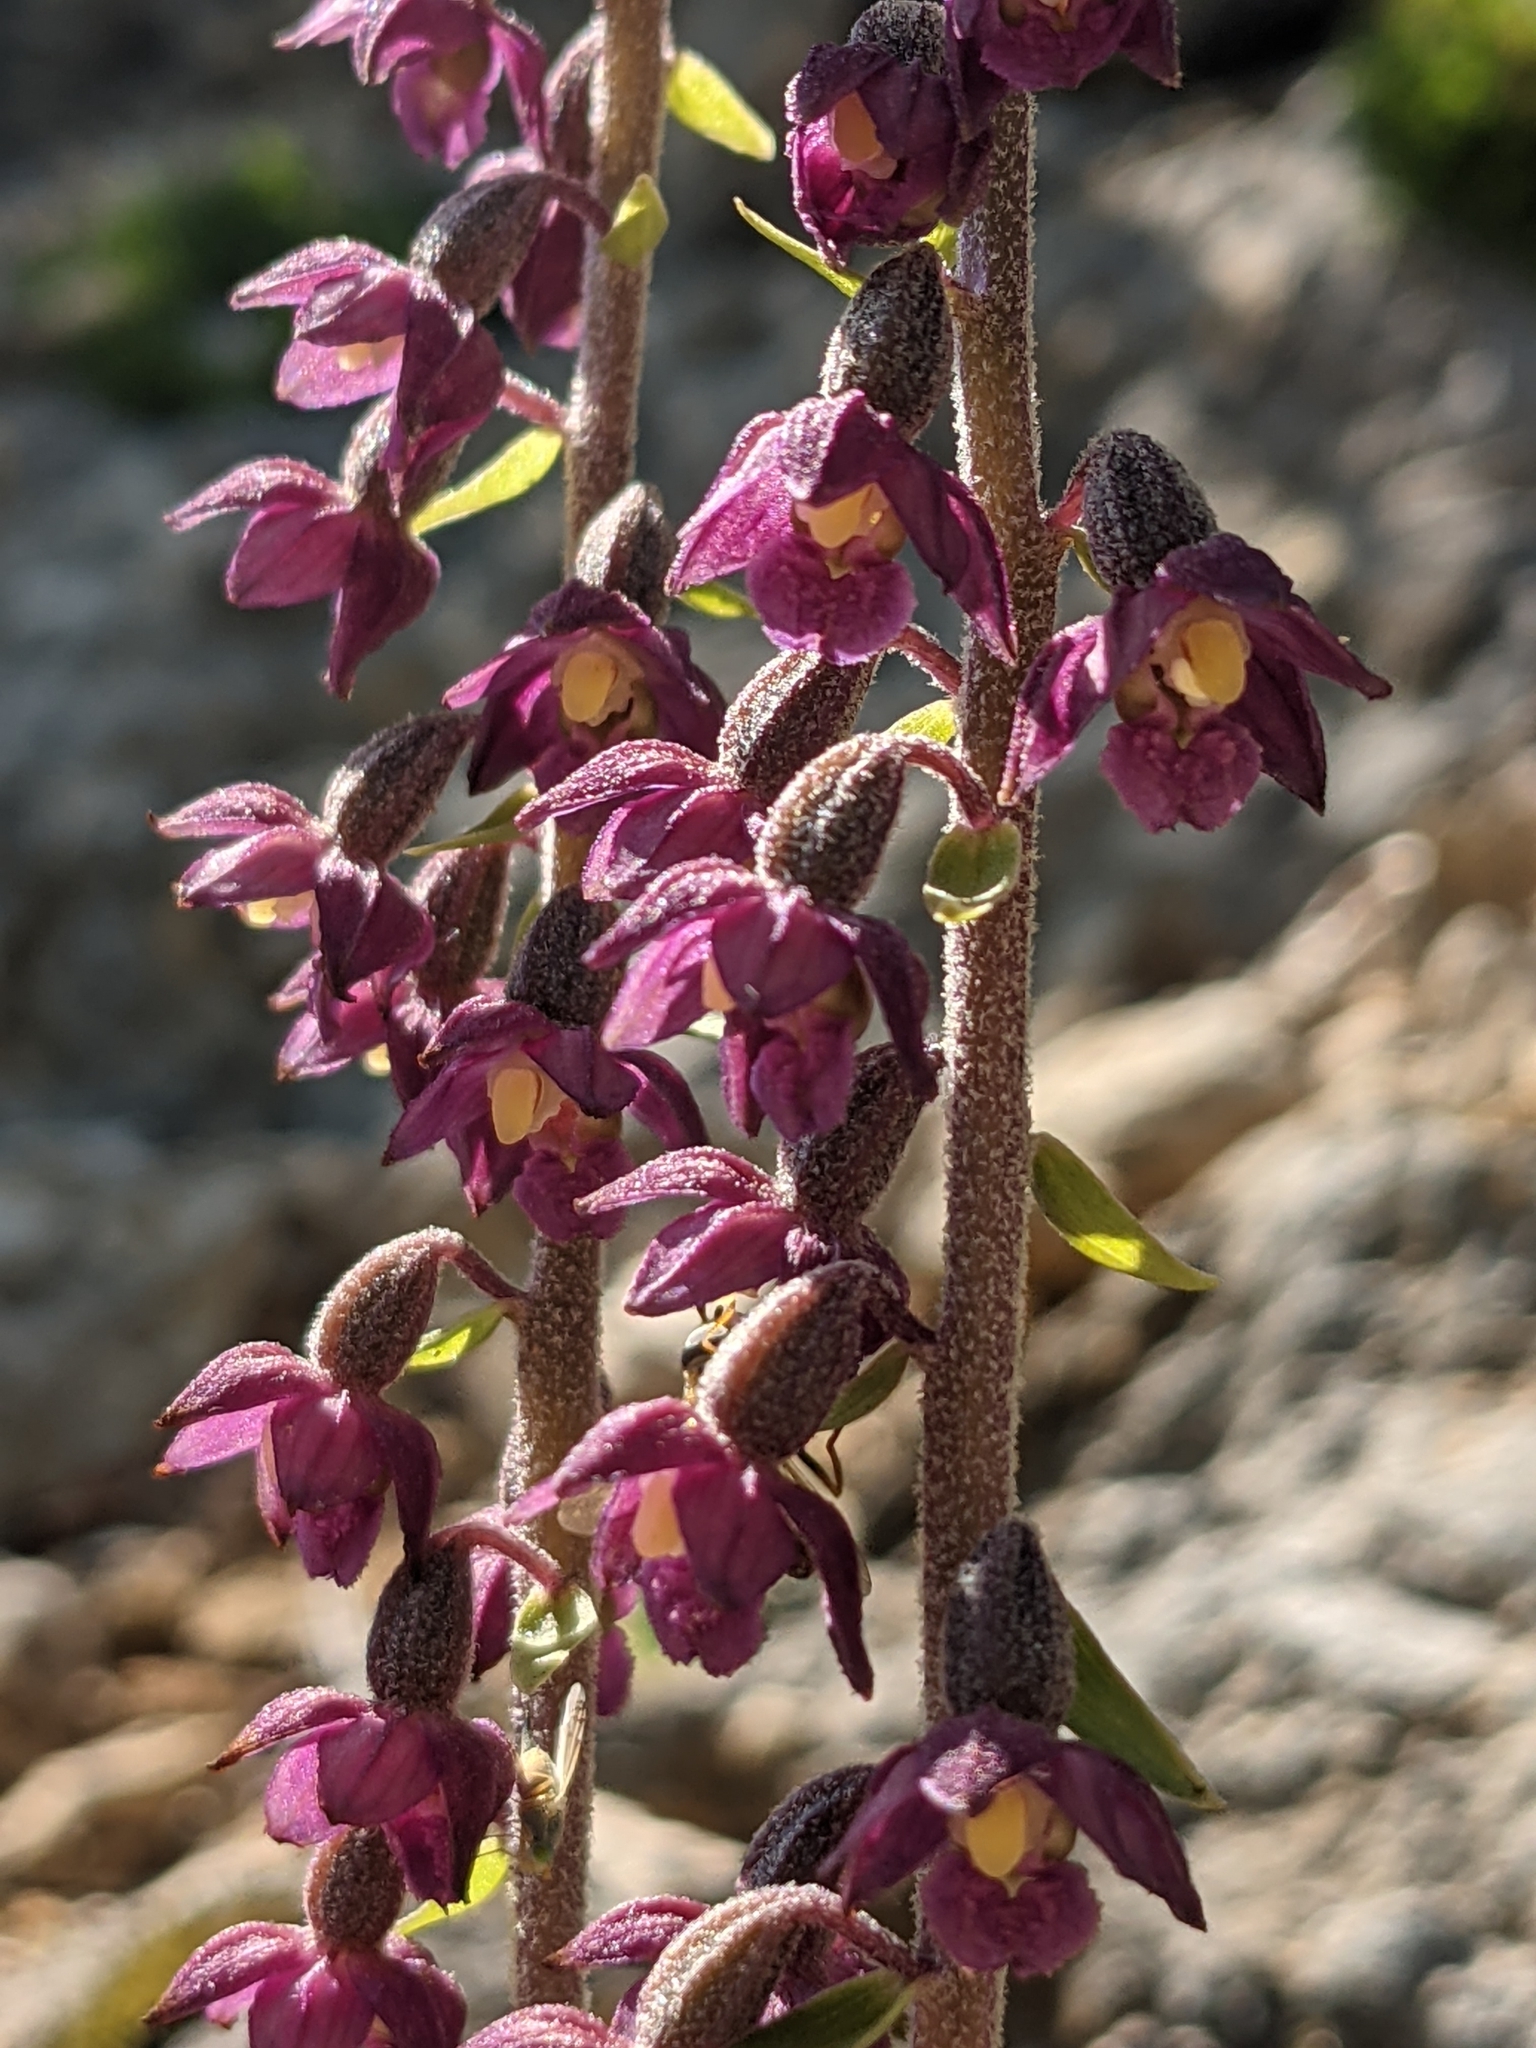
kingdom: Plantae
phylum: Tracheophyta
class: Liliopsida
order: Asparagales
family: Orchidaceae
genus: Epipactis
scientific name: Epipactis atrorubens
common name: Dark-red helleborine
